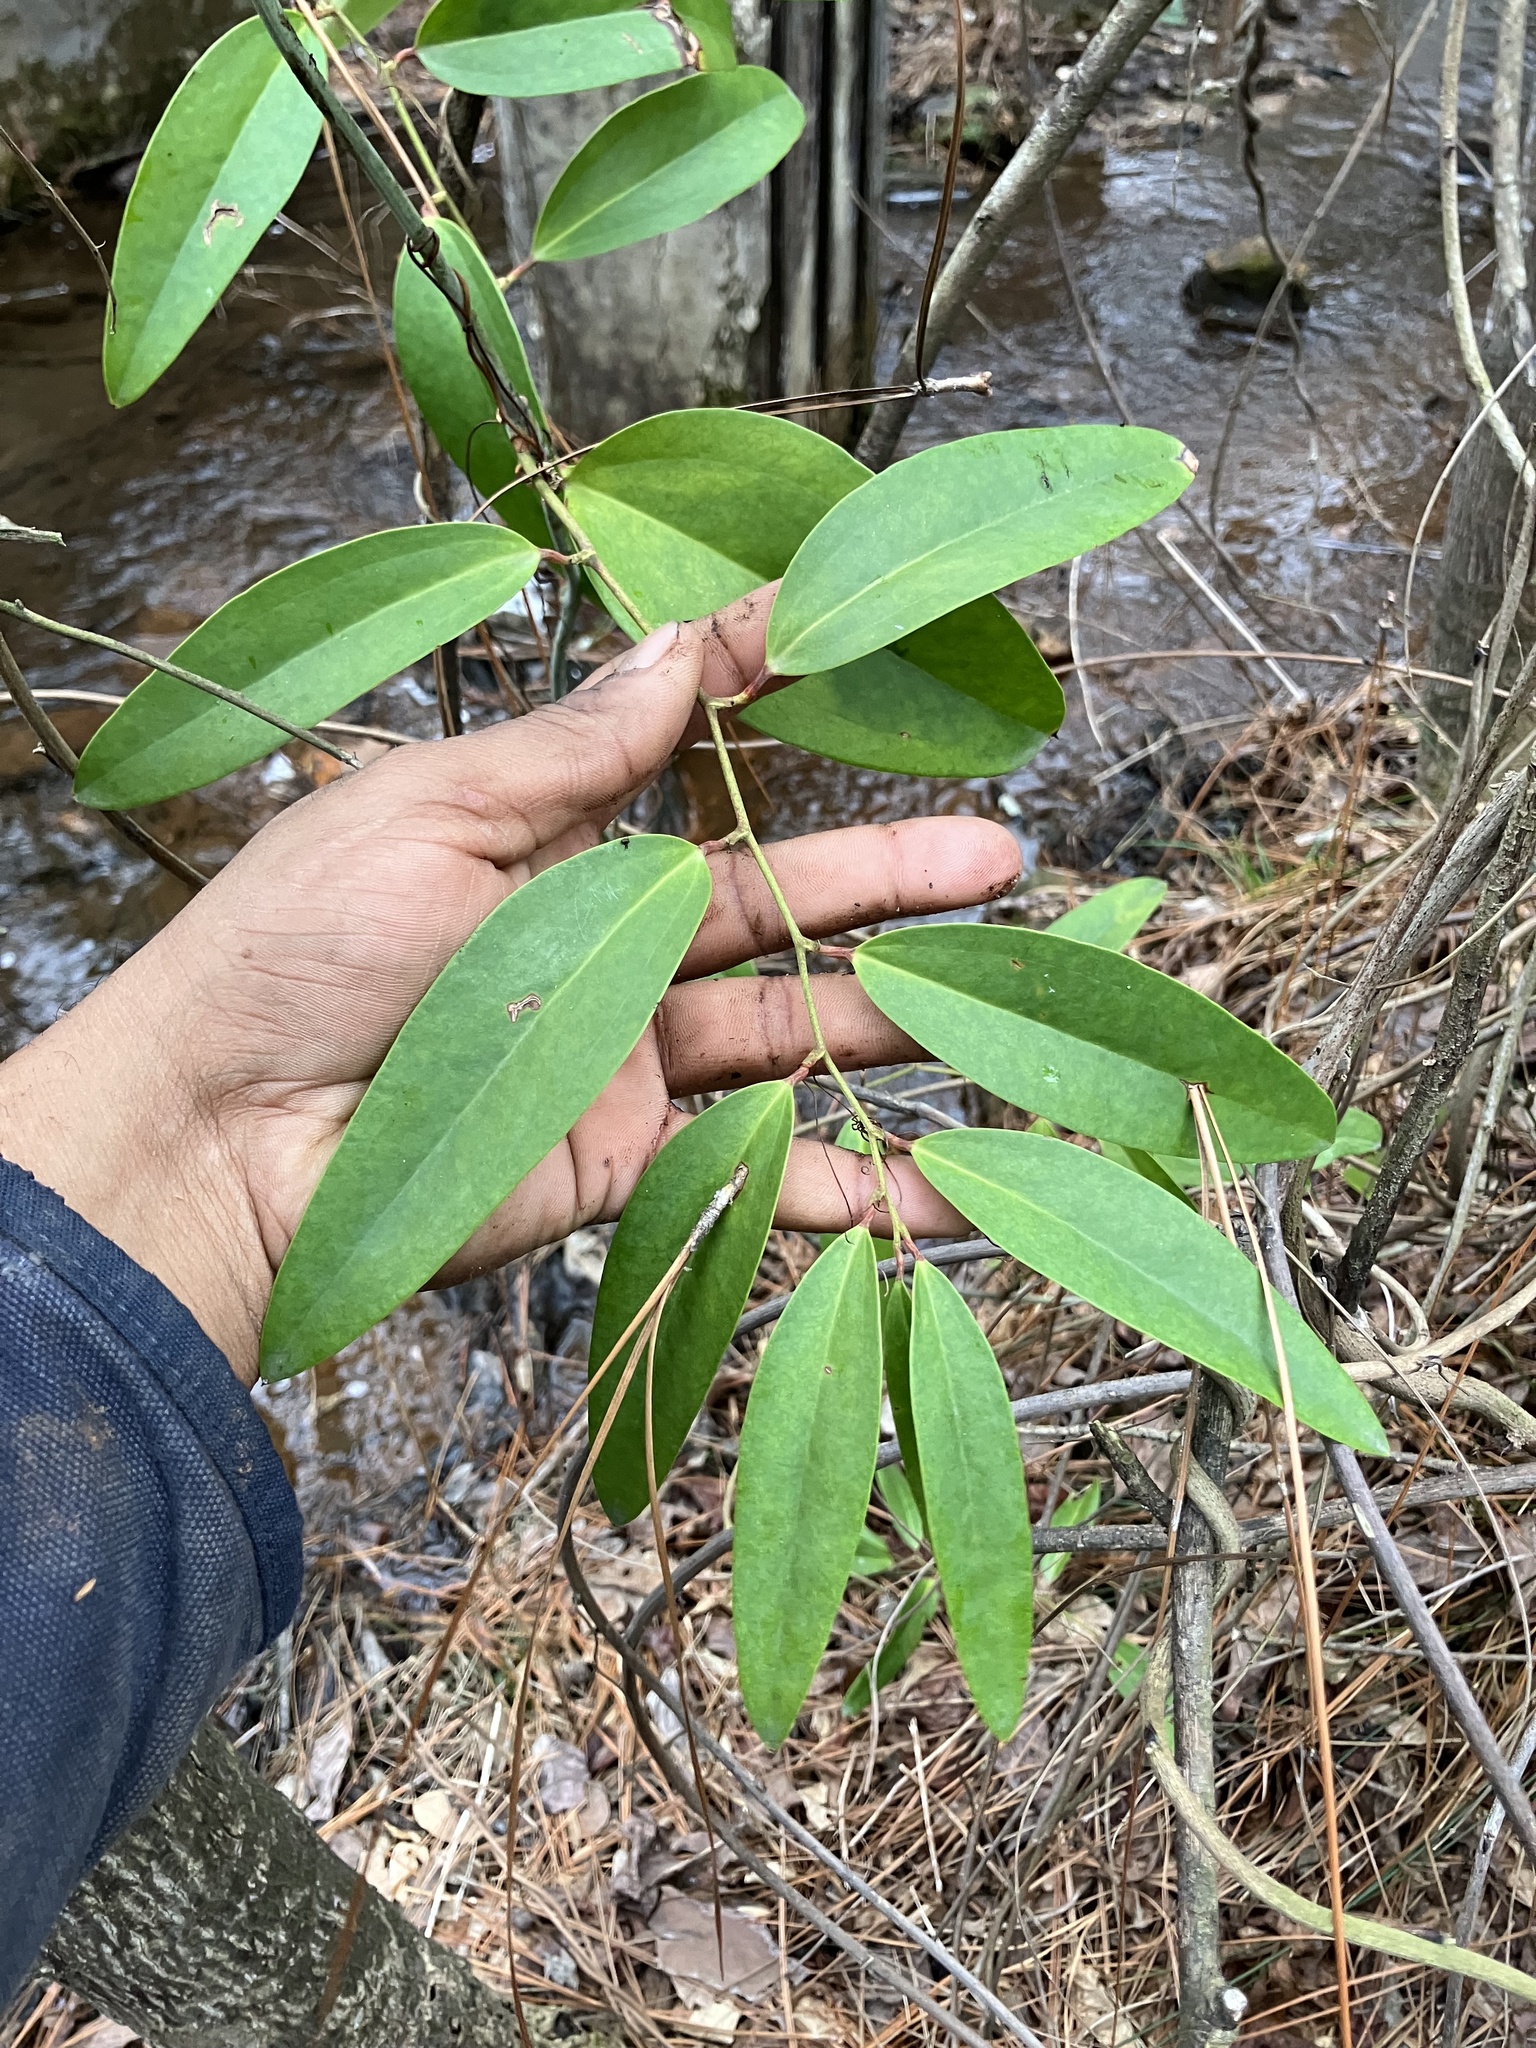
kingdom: Plantae
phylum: Tracheophyta
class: Liliopsida
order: Liliales
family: Smilacaceae
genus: Smilax
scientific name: Smilax laurifolia
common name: Bamboovine
